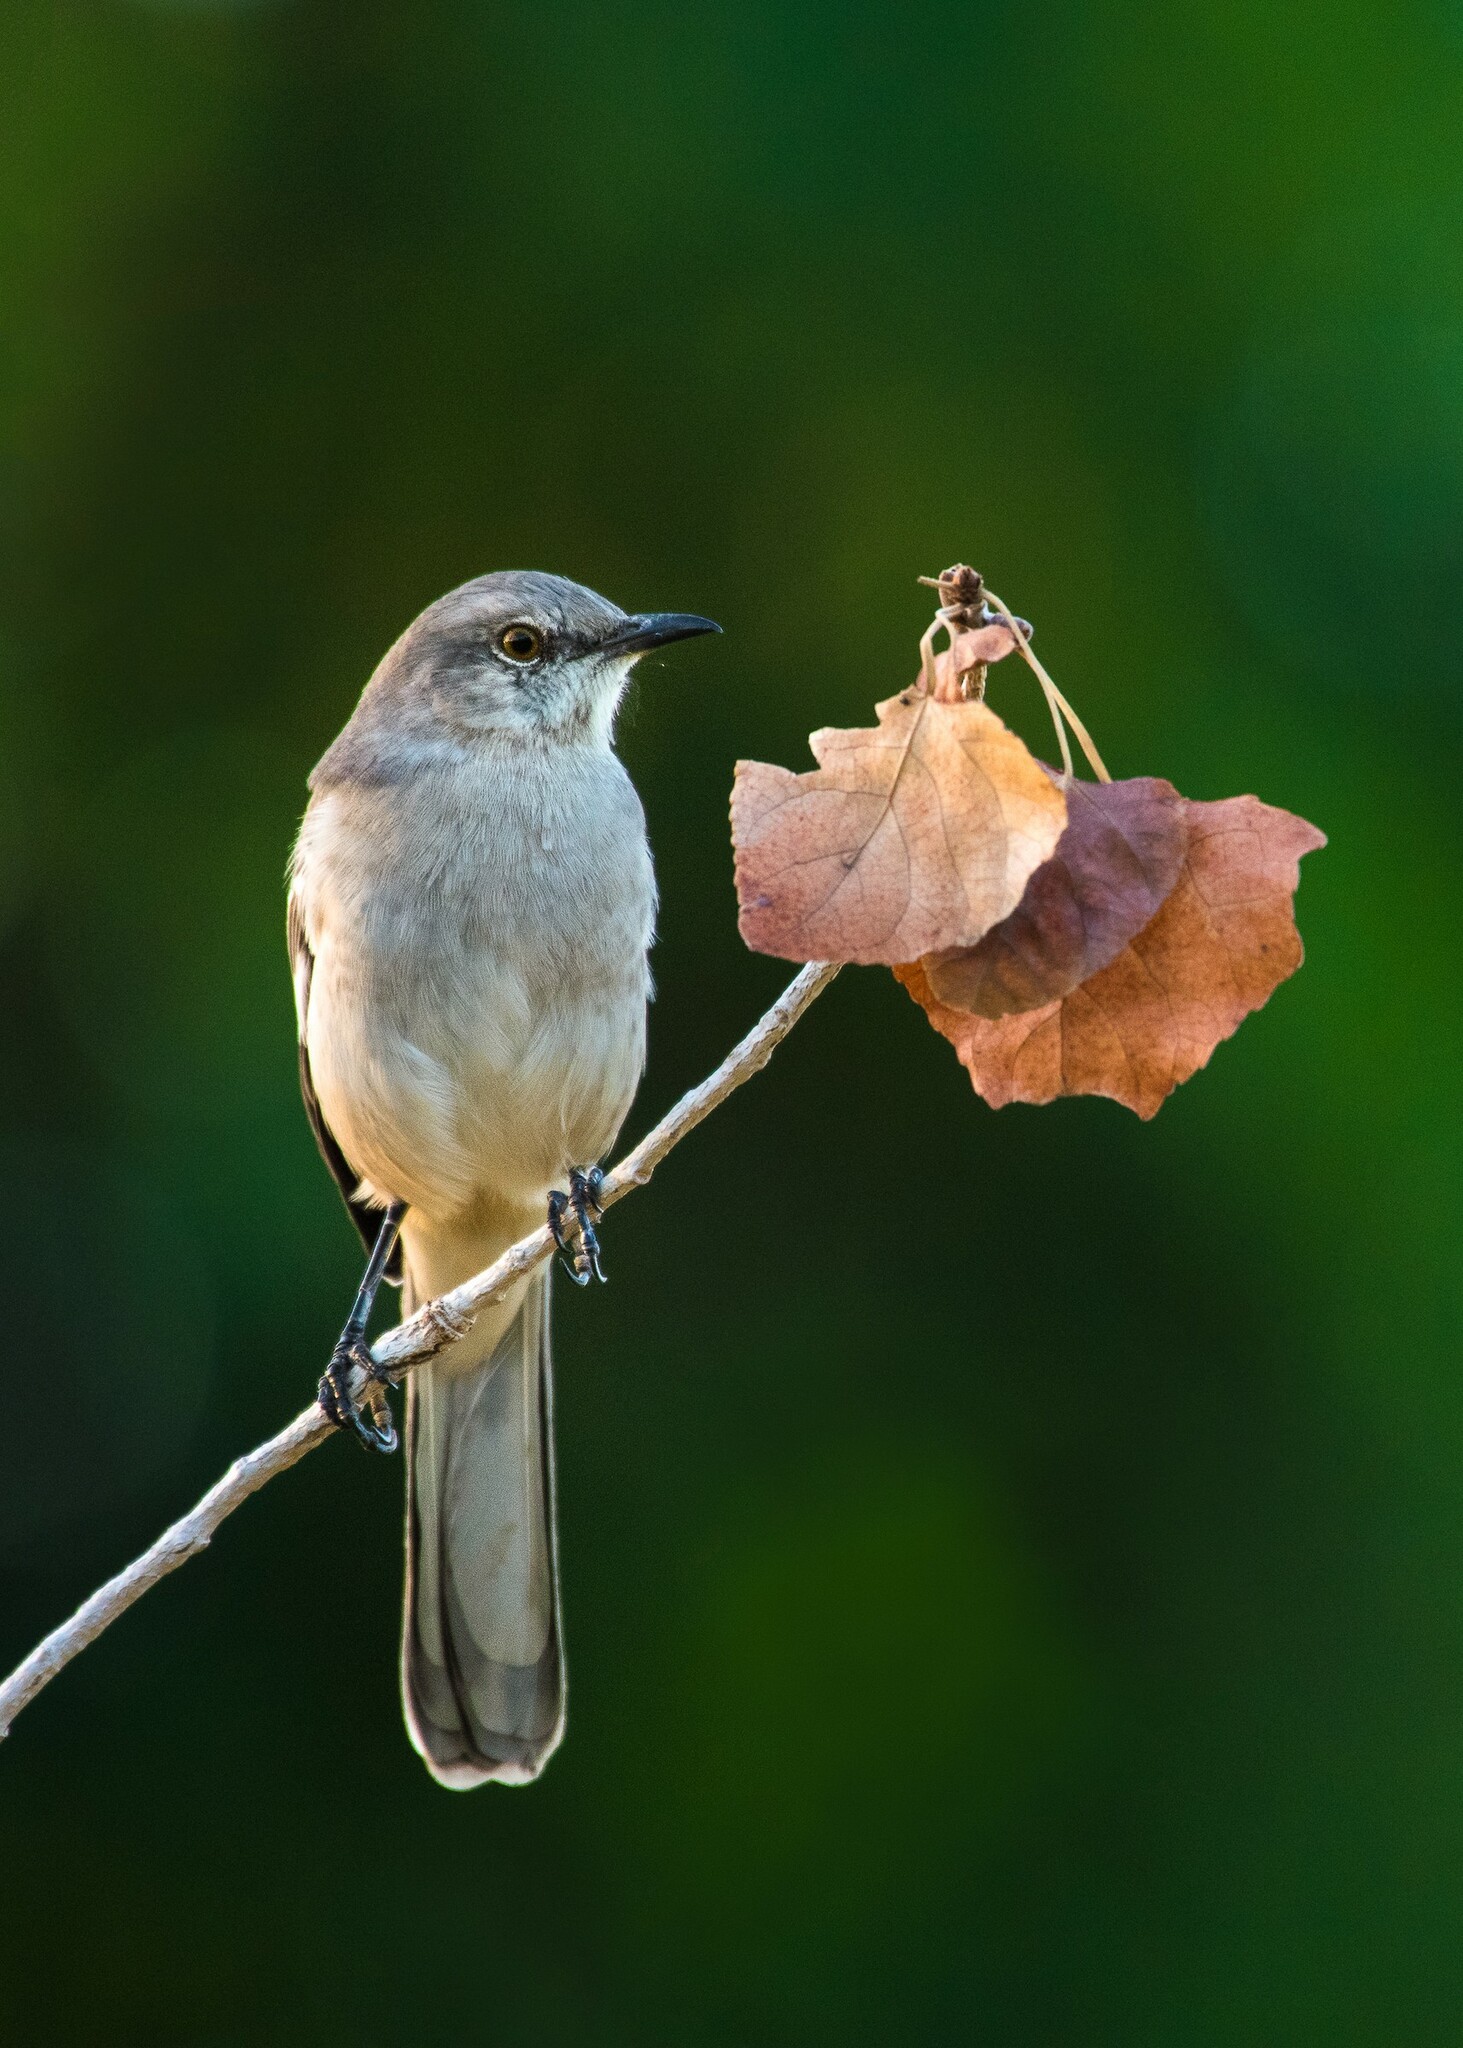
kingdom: Animalia
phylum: Chordata
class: Aves
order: Passeriformes
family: Mimidae
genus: Mimus
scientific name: Mimus polyglottos
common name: Northern mockingbird
